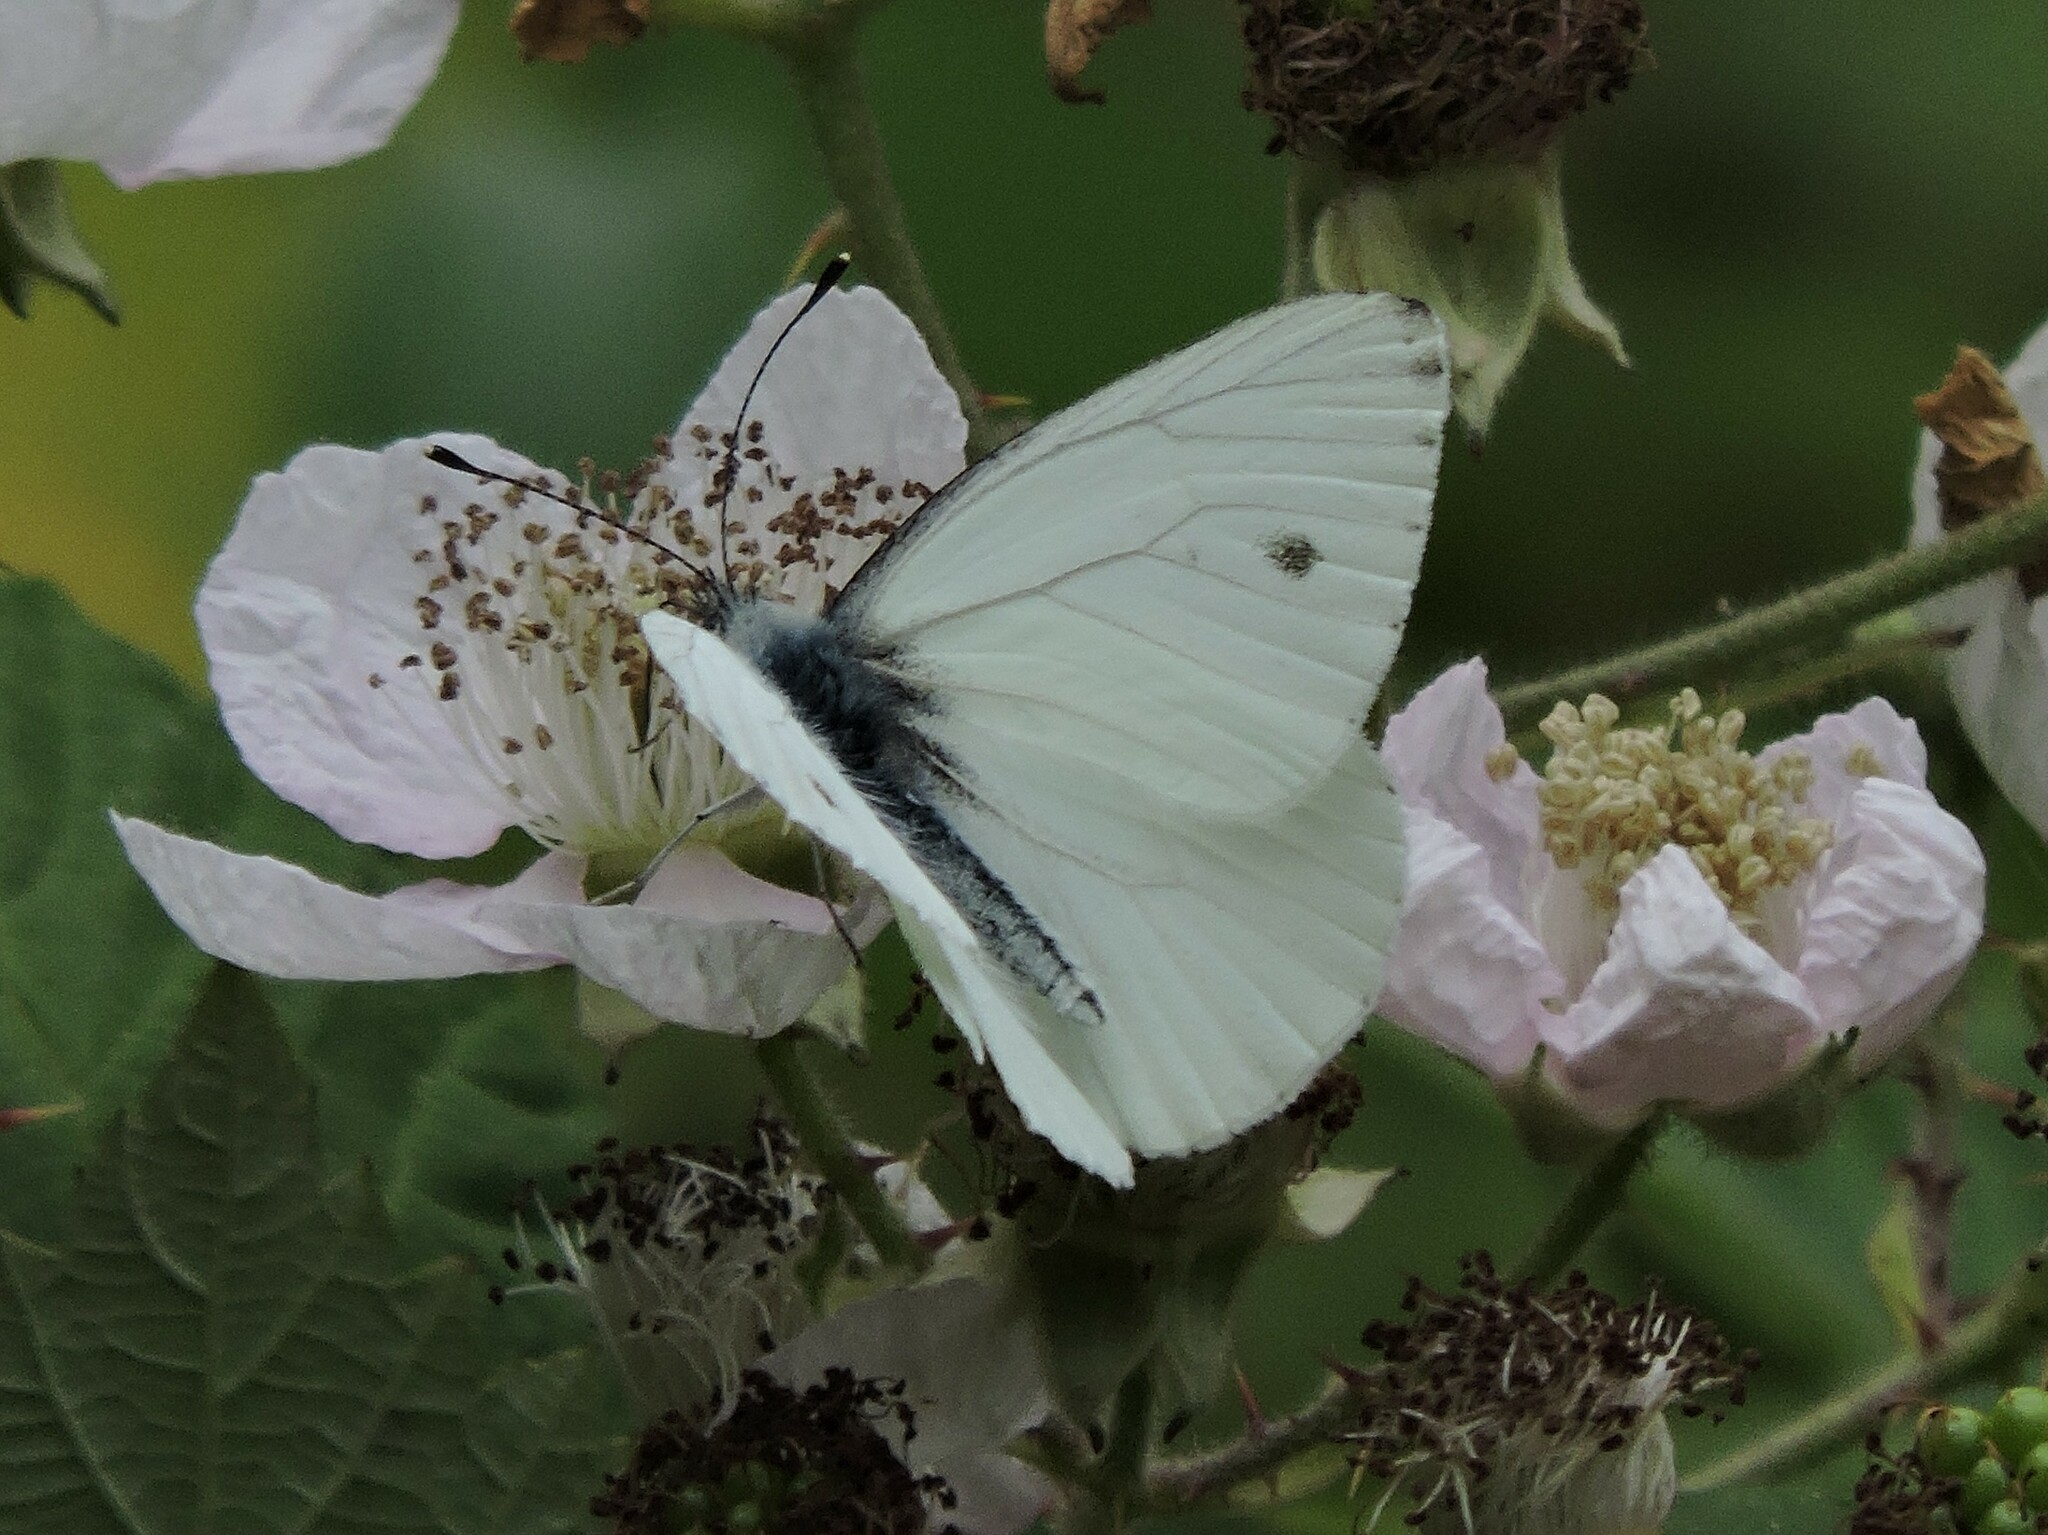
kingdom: Animalia
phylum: Arthropoda
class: Insecta
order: Lepidoptera
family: Pieridae
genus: Pieris
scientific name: Pieris marginalis
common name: Margined white
